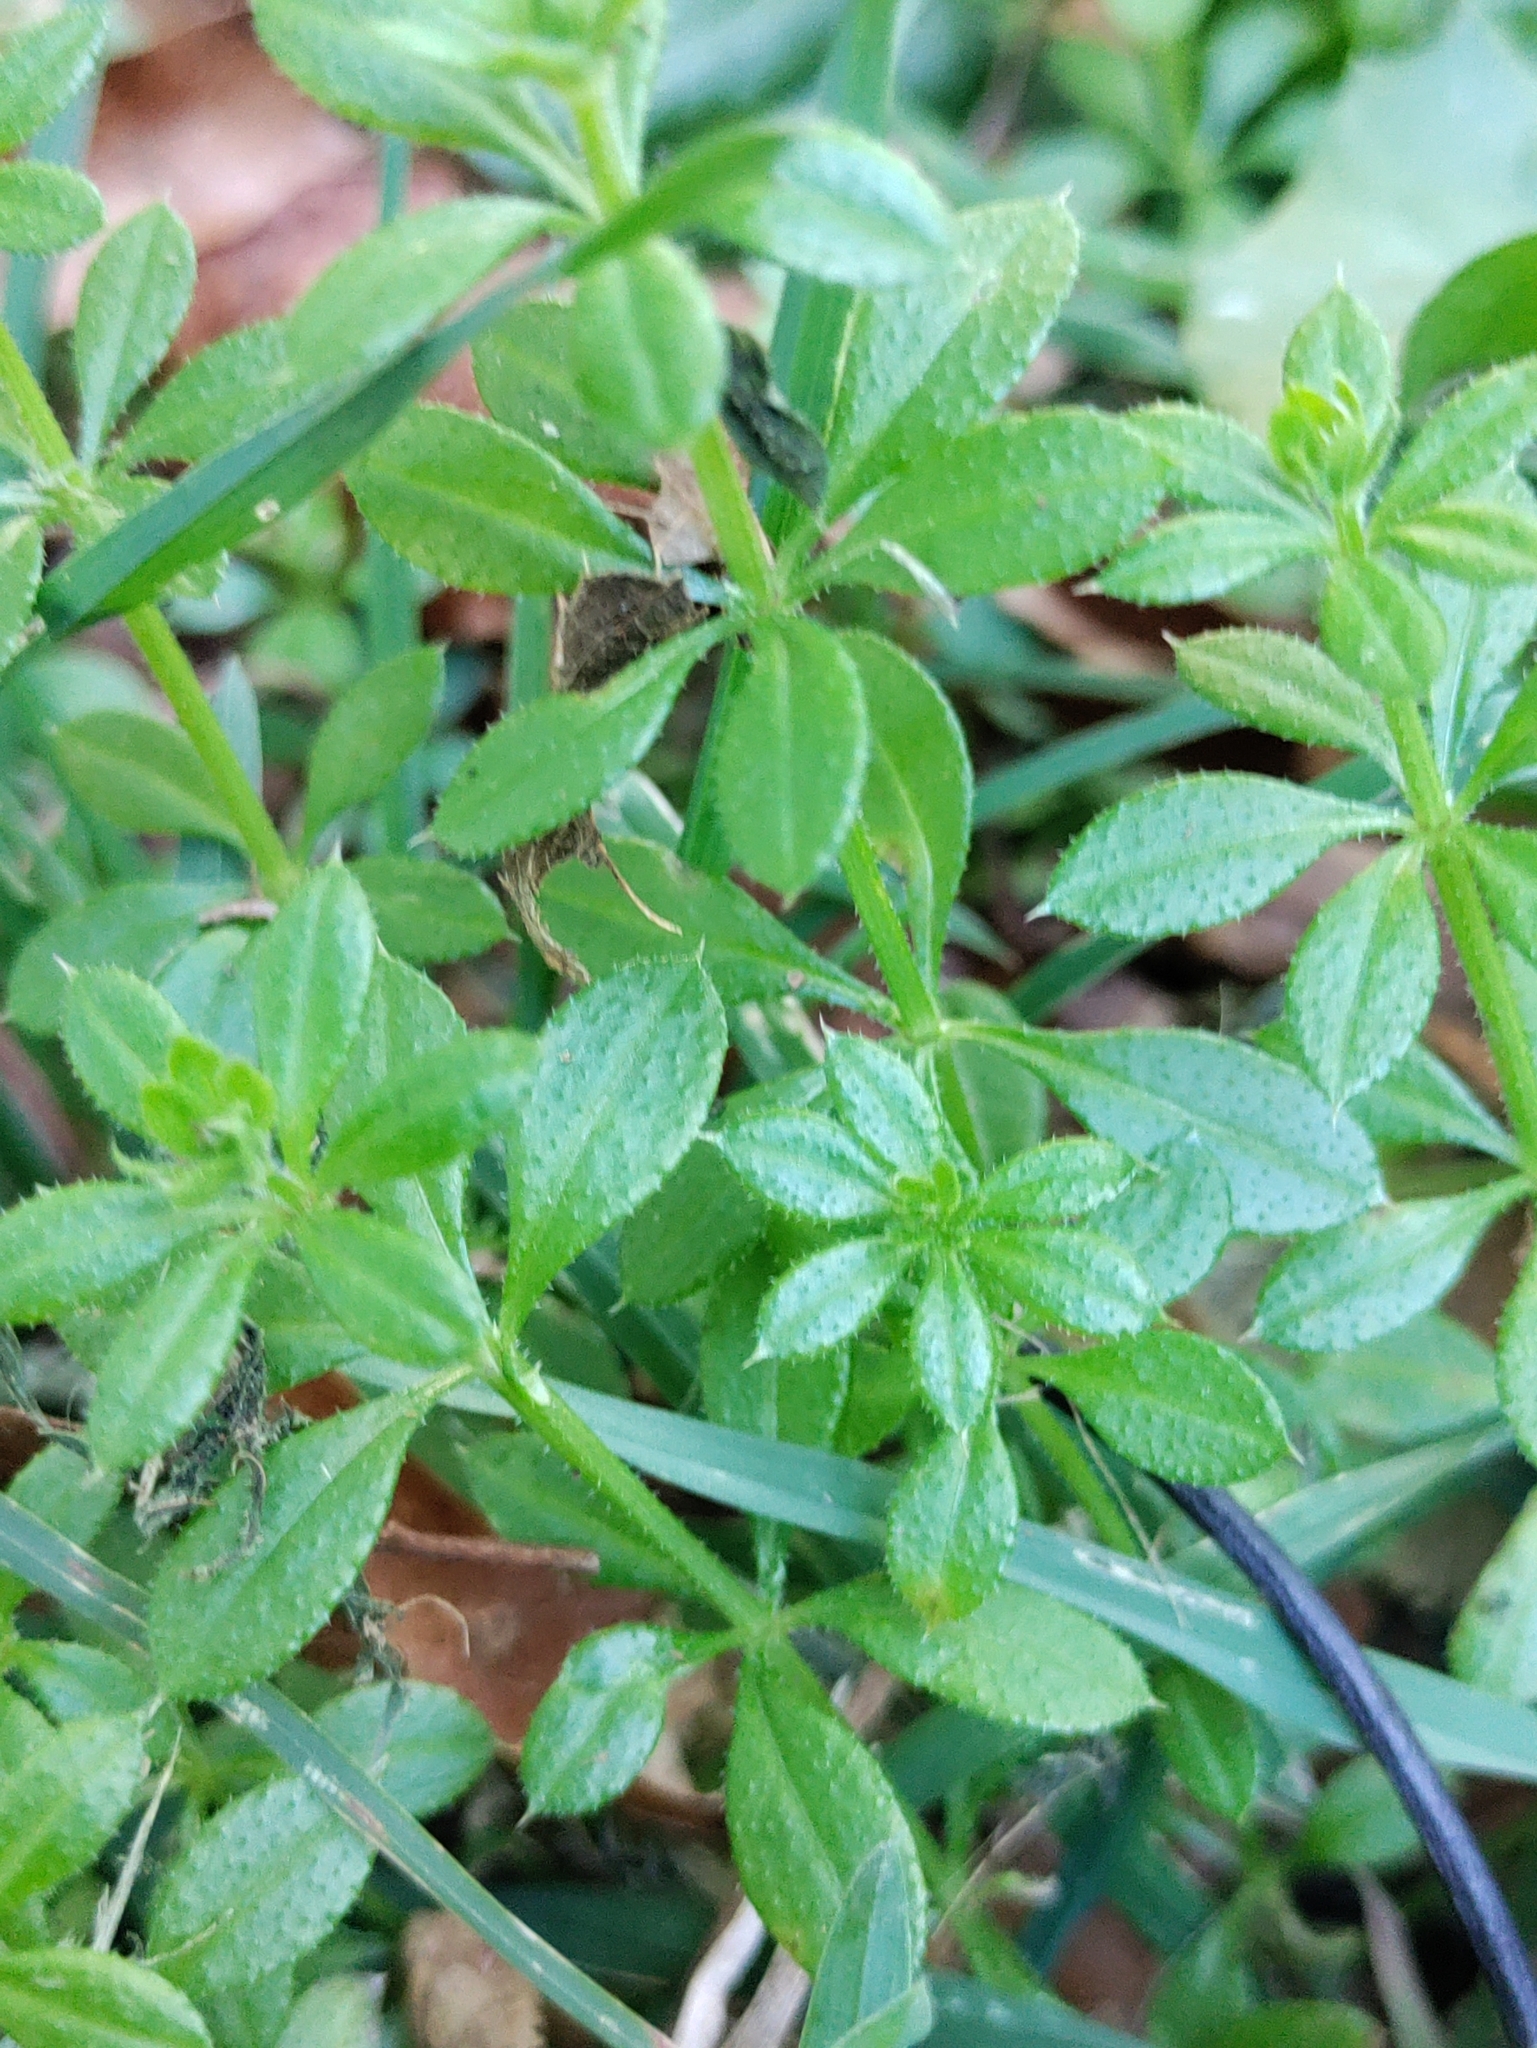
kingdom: Plantae
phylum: Tracheophyta
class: Magnoliopsida
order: Gentianales
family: Rubiaceae
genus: Galium
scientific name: Galium aparine
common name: Cleavers
